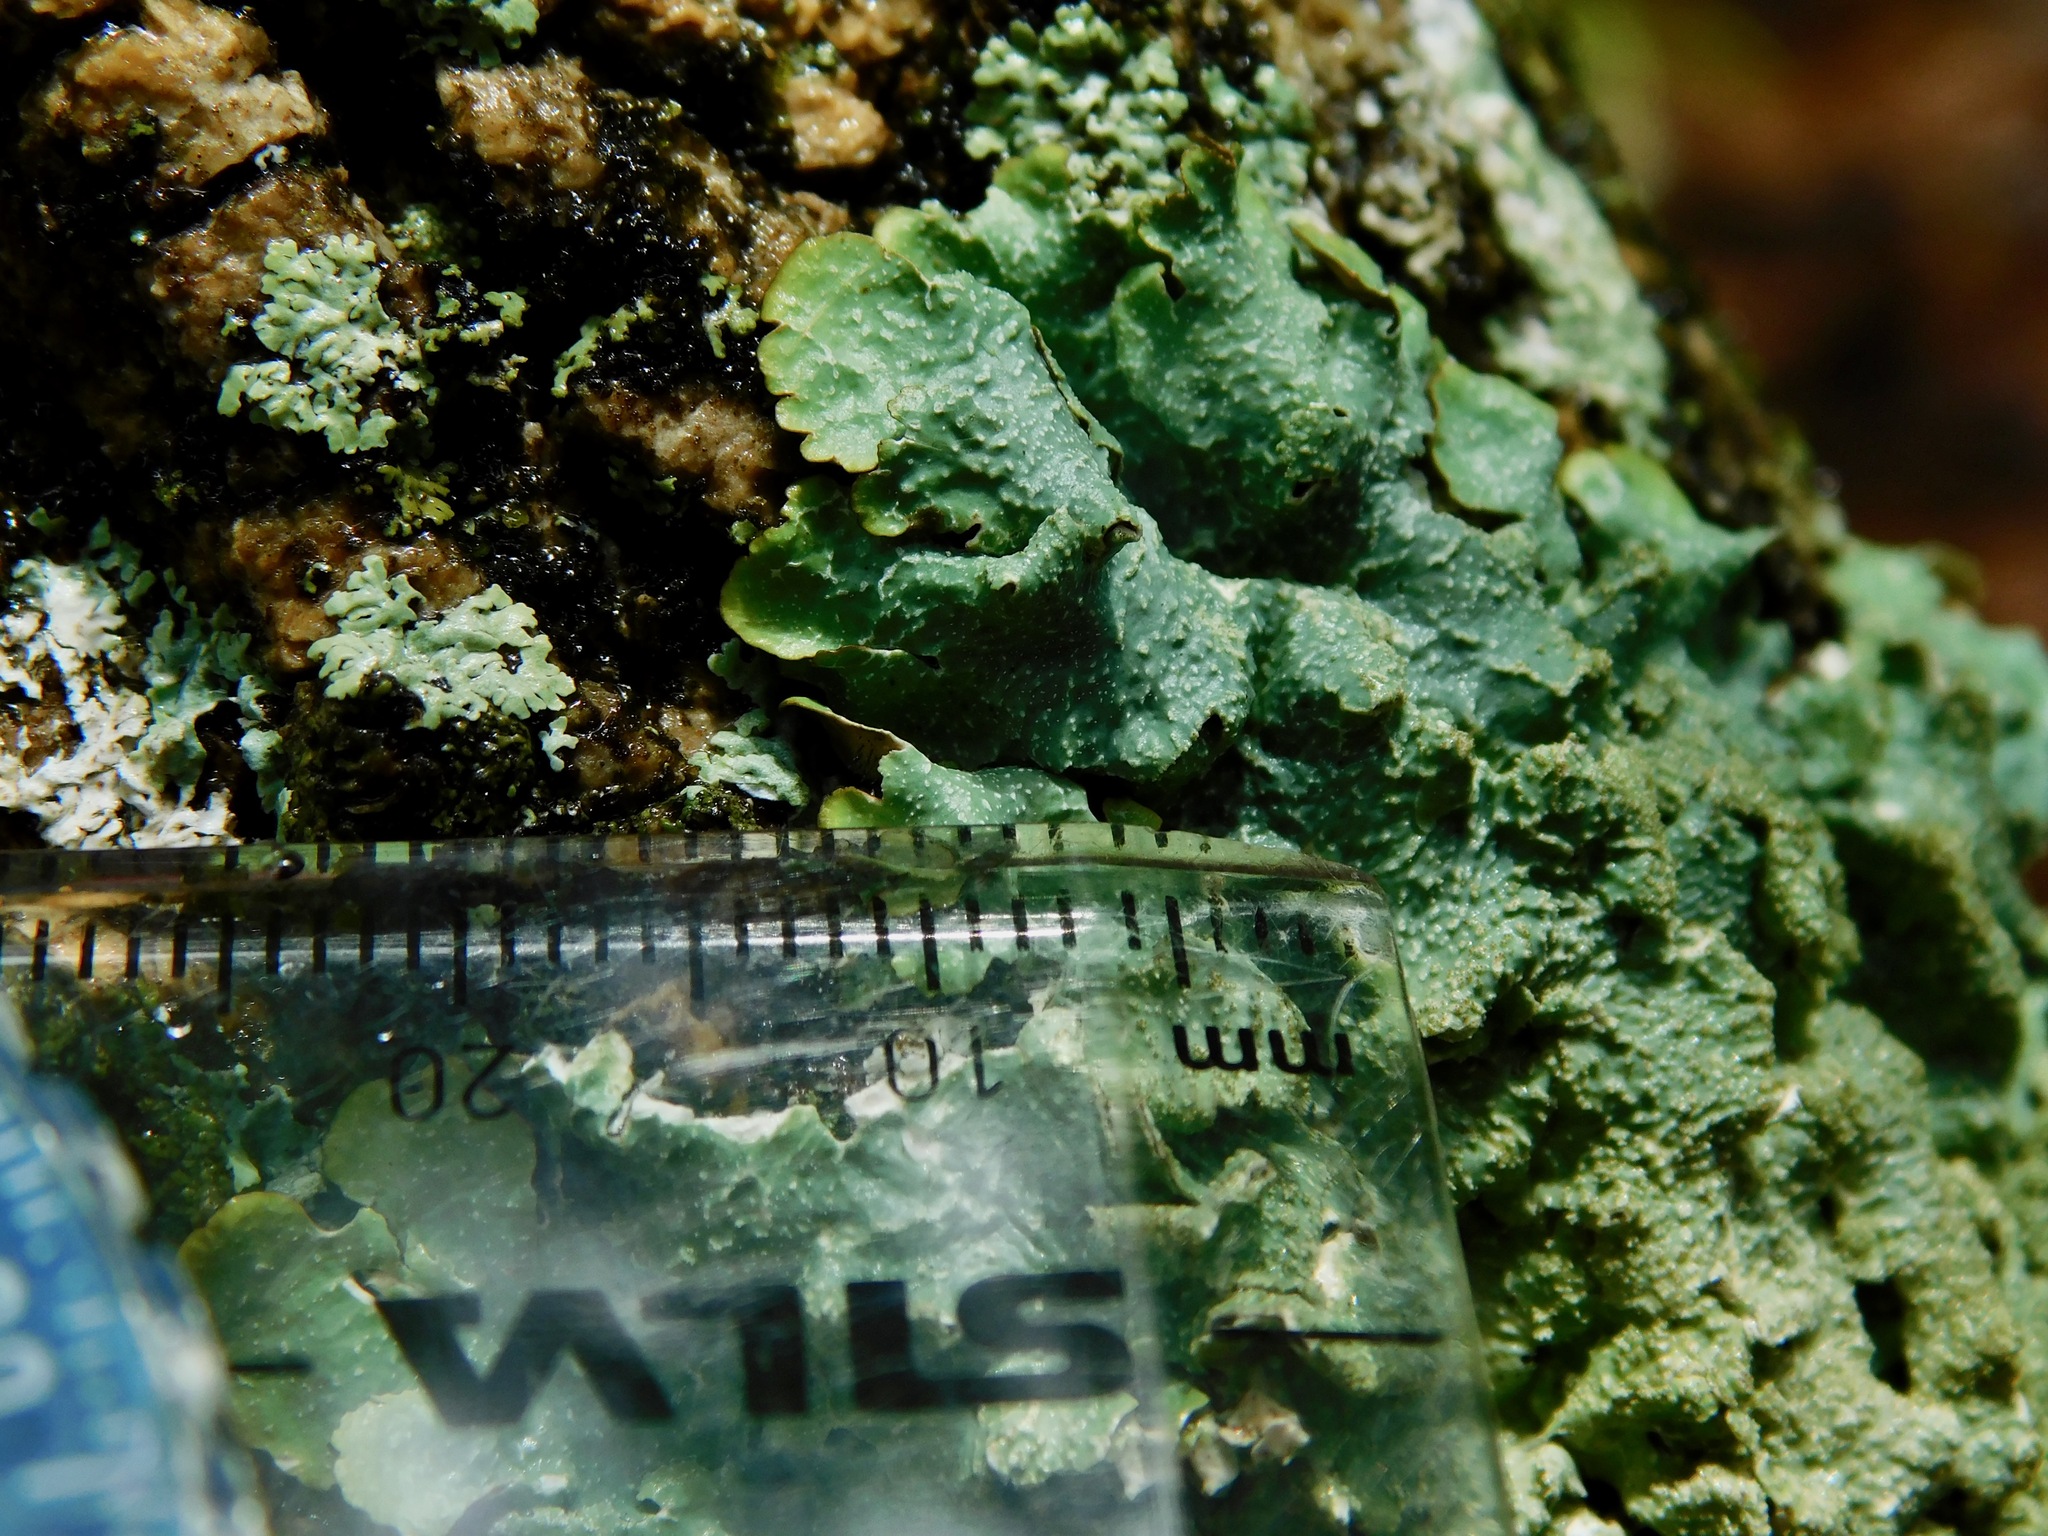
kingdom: Fungi
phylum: Ascomycota
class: Lecanoromycetes
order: Lecanorales
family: Parmeliaceae
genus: Punctelia
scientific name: Punctelia rudecta
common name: Rough speckled shield lichen
